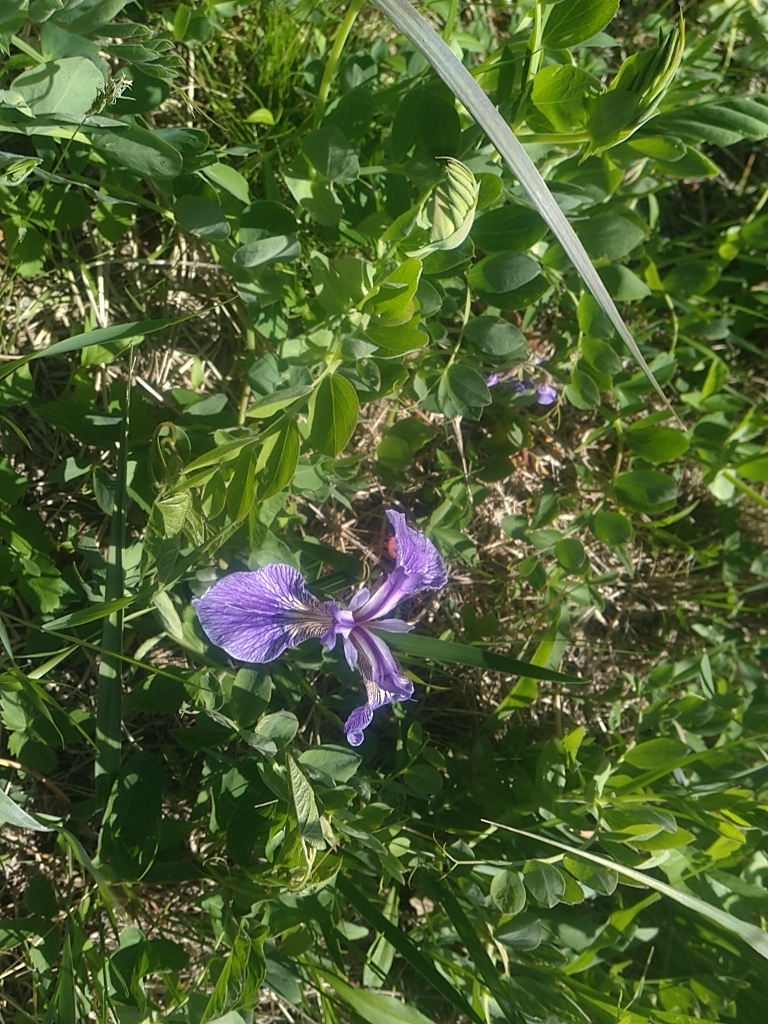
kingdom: Plantae
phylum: Tracheophyta
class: Liliopsida
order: Asparagales
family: Iridaceae
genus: Iris
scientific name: Iris versicolor
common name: Purple iris
